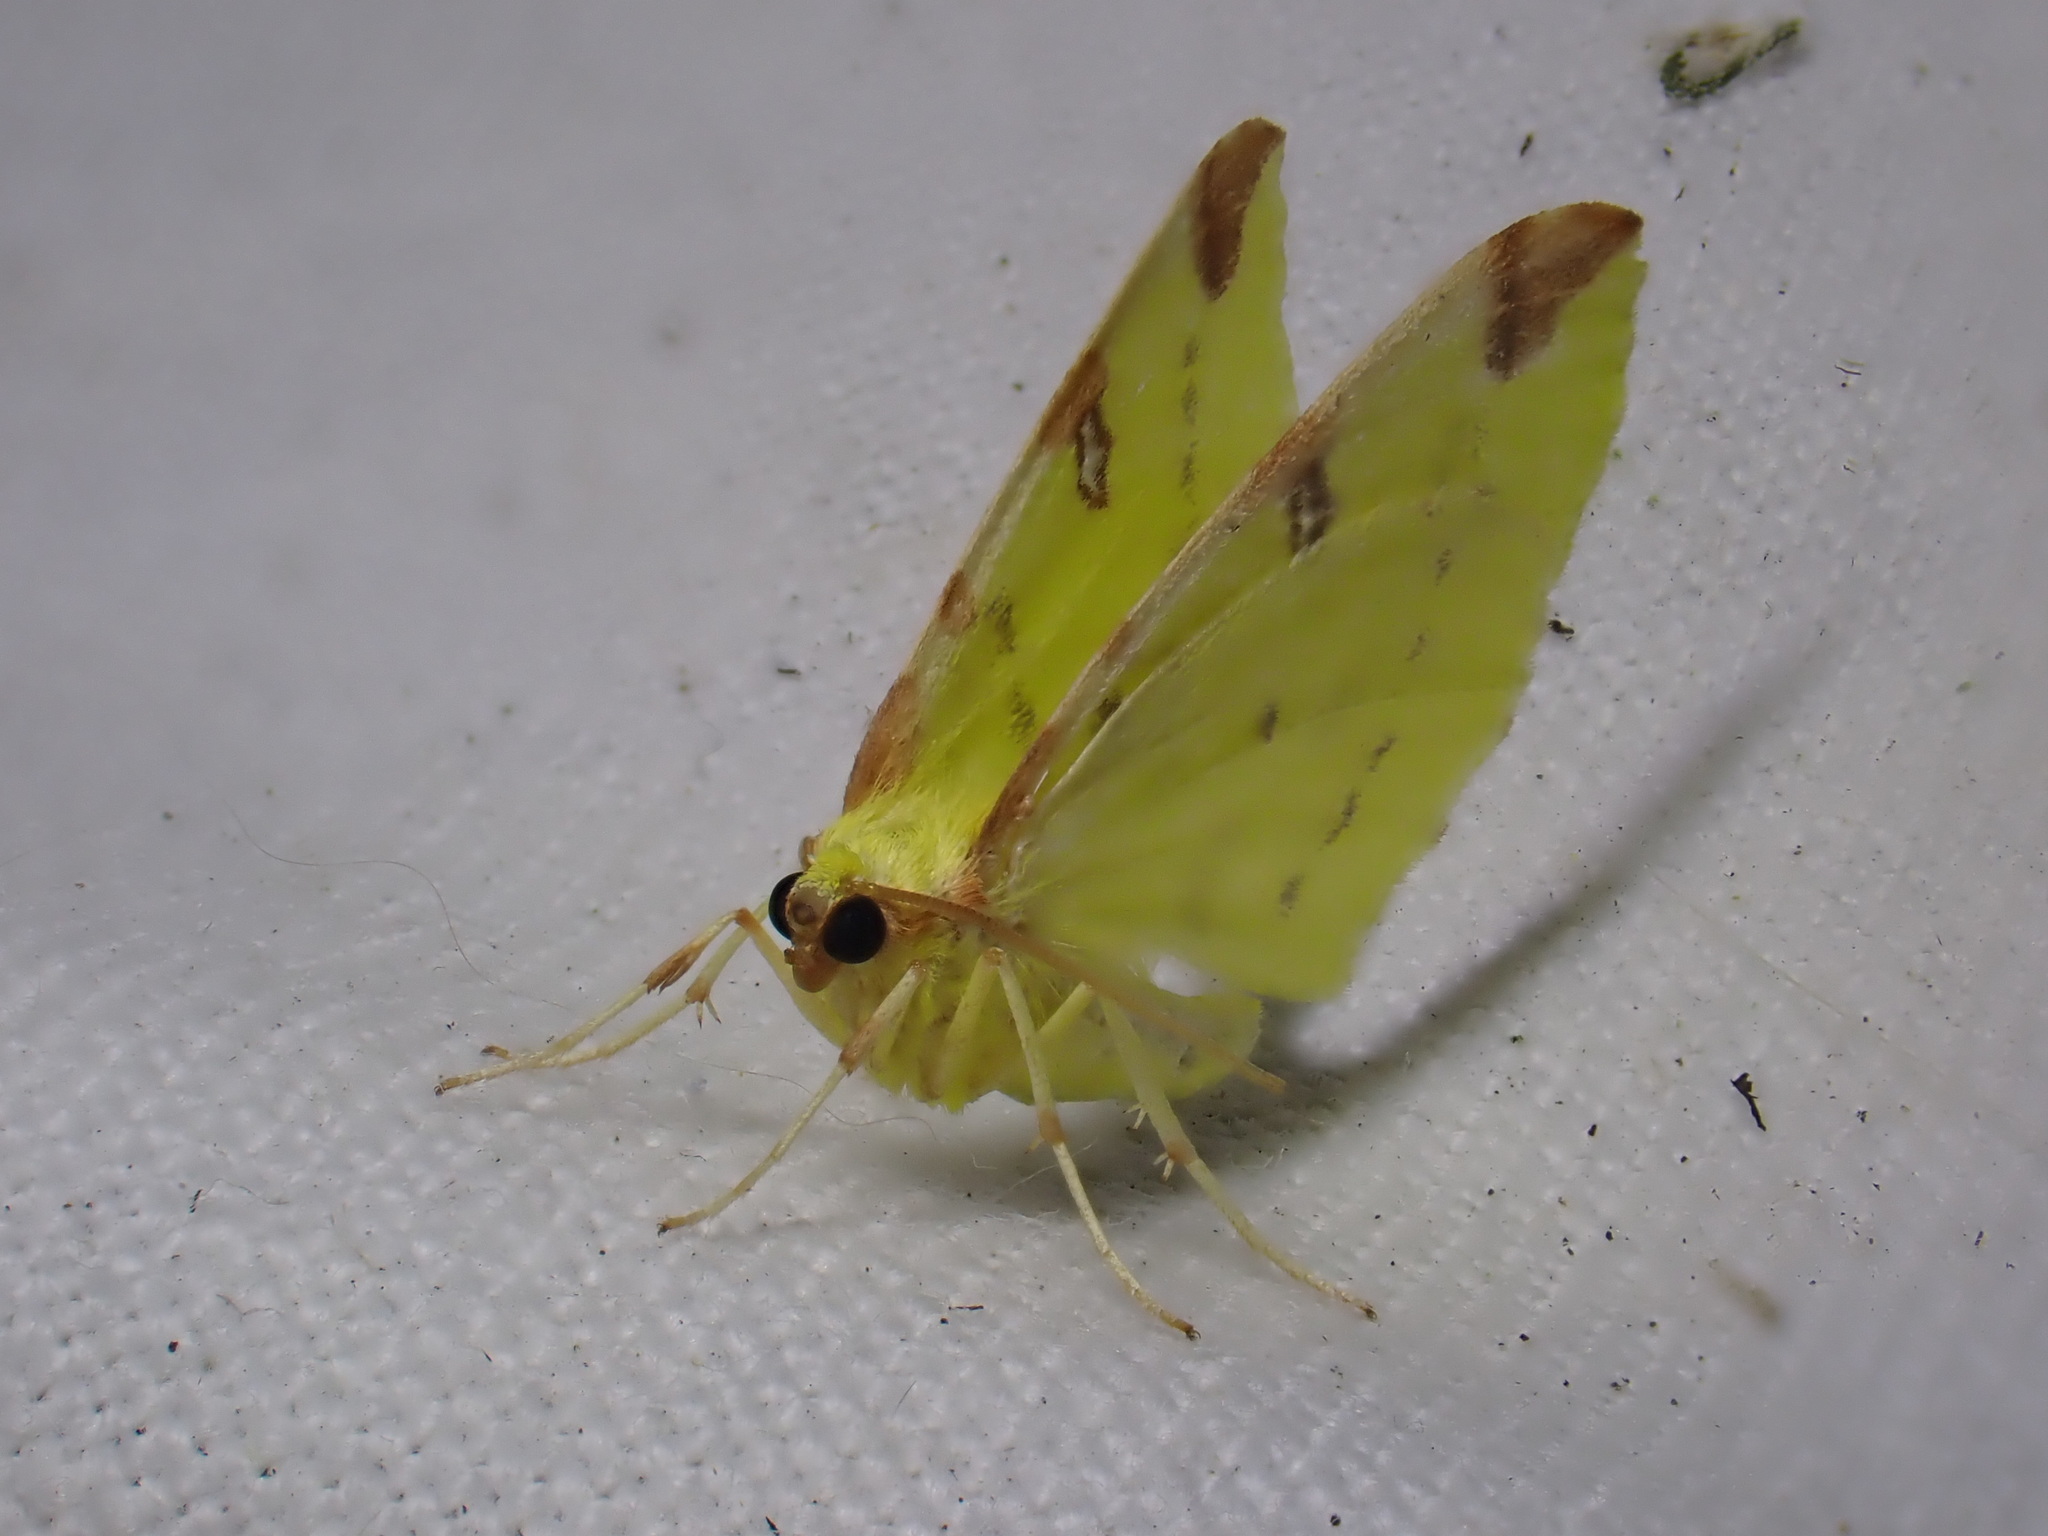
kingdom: Animalia
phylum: Arthropoda
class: Insecta
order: Lepidoptera
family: Geometridae
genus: Opisthograptis
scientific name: Opisthograptis luteolata
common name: Brimstone moth
